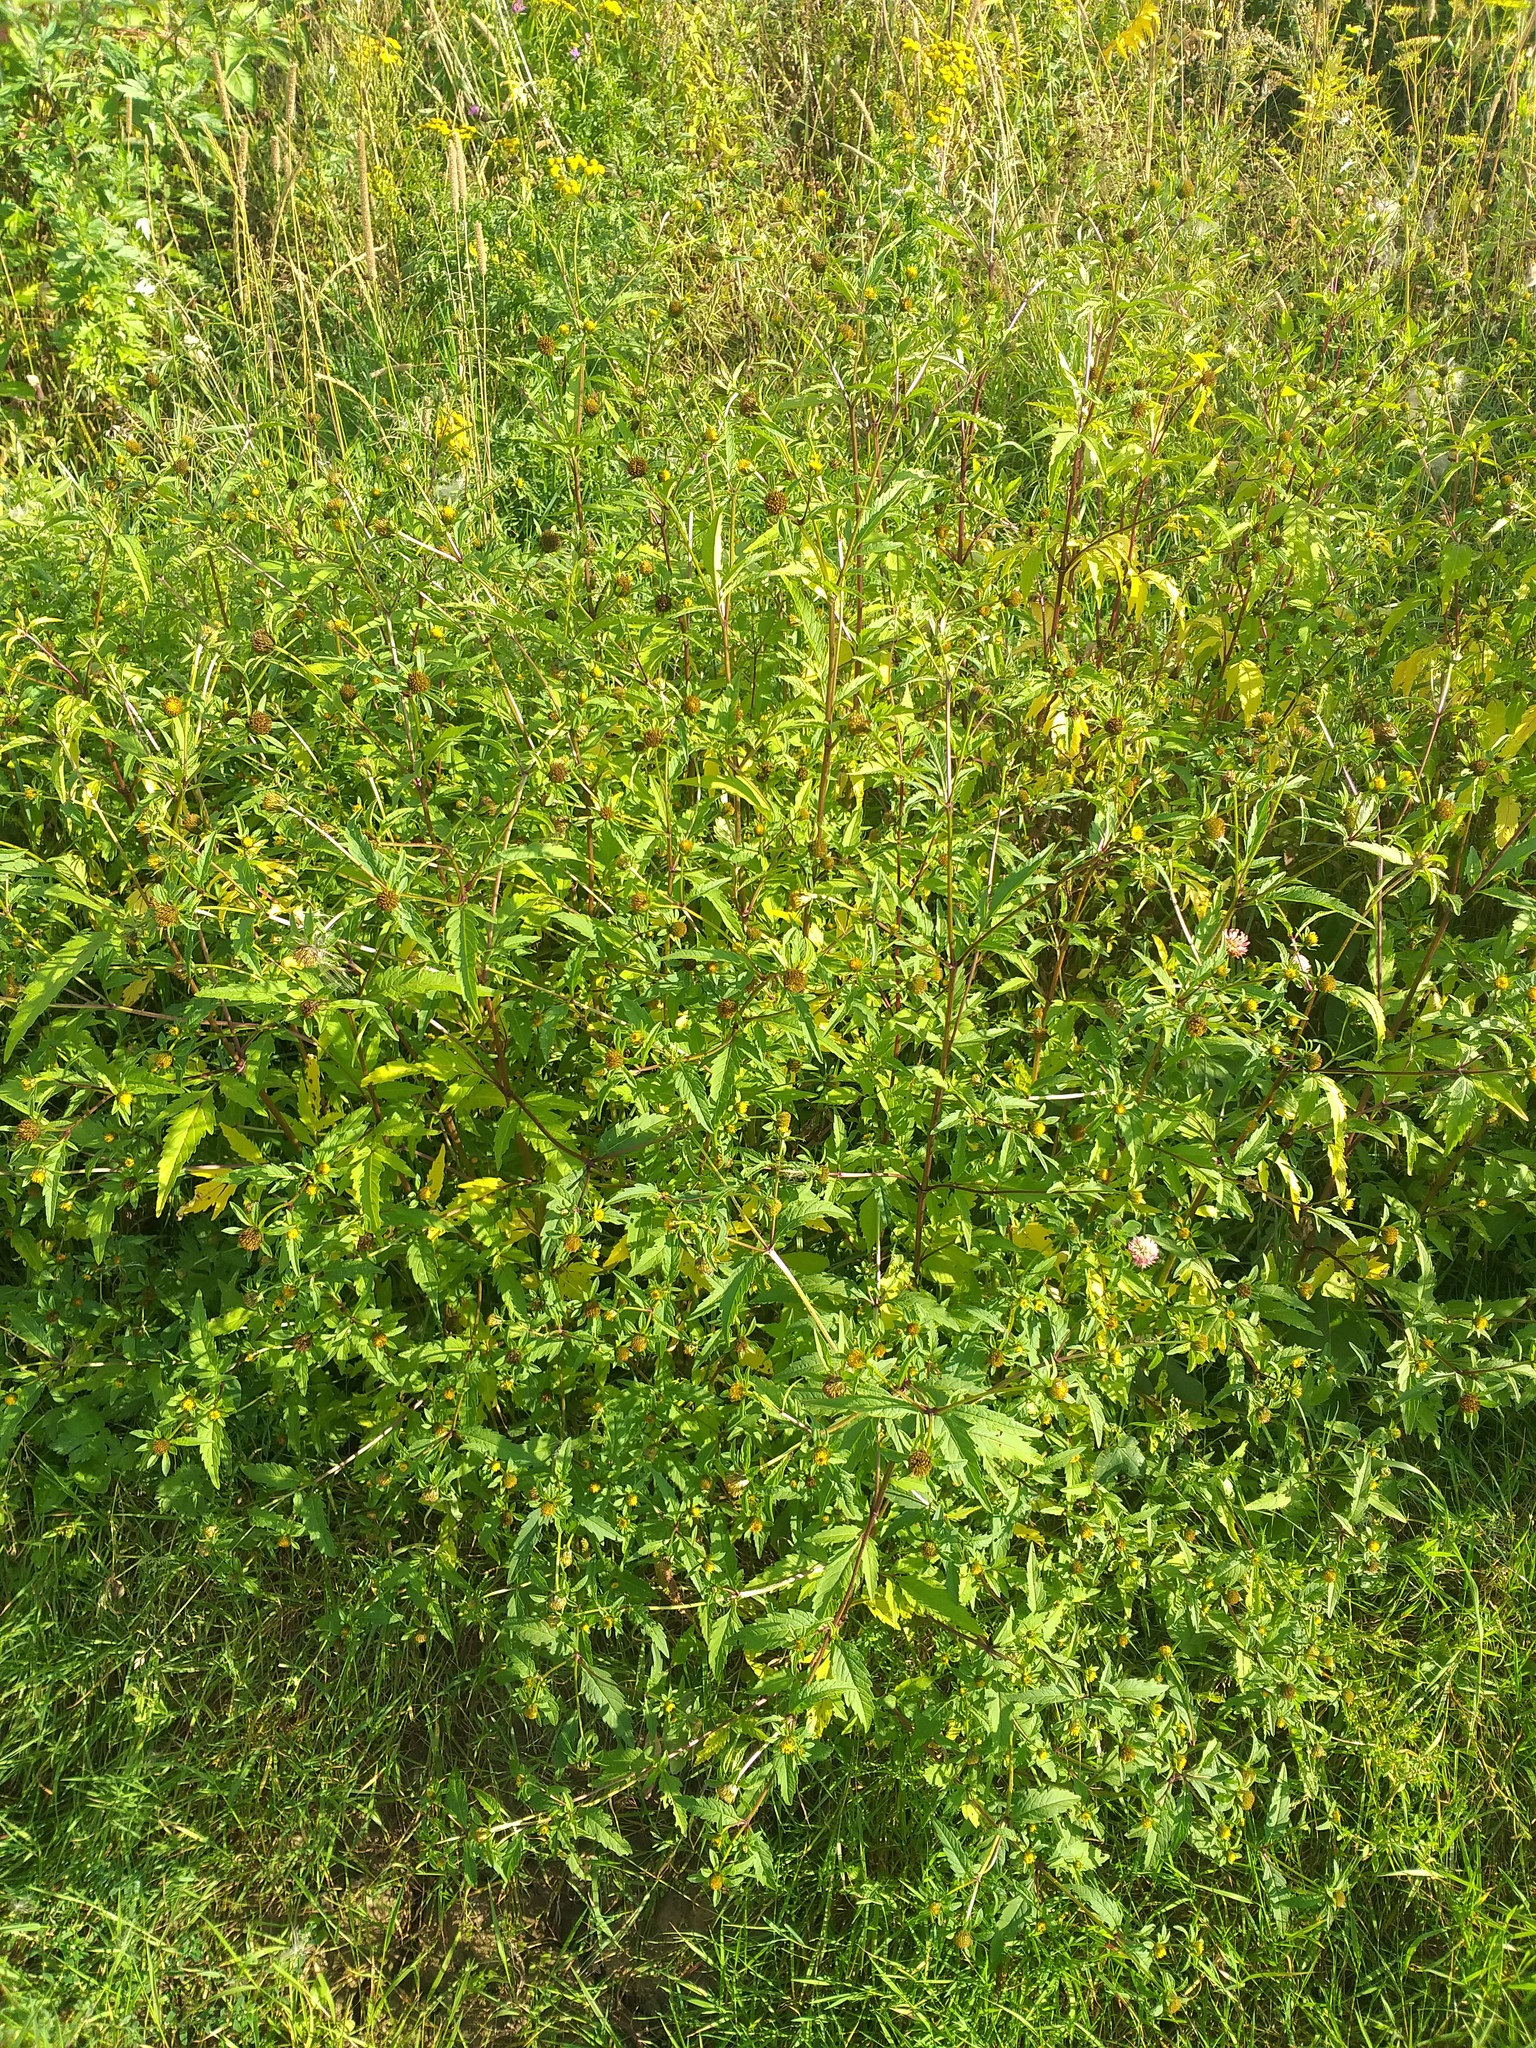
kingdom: Plantae
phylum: Tracheophyta
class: Magnoliopsida
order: Asterales
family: Asteraceae
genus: Bidens
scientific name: Bidens tripartita
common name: Trifid bur-marigold
